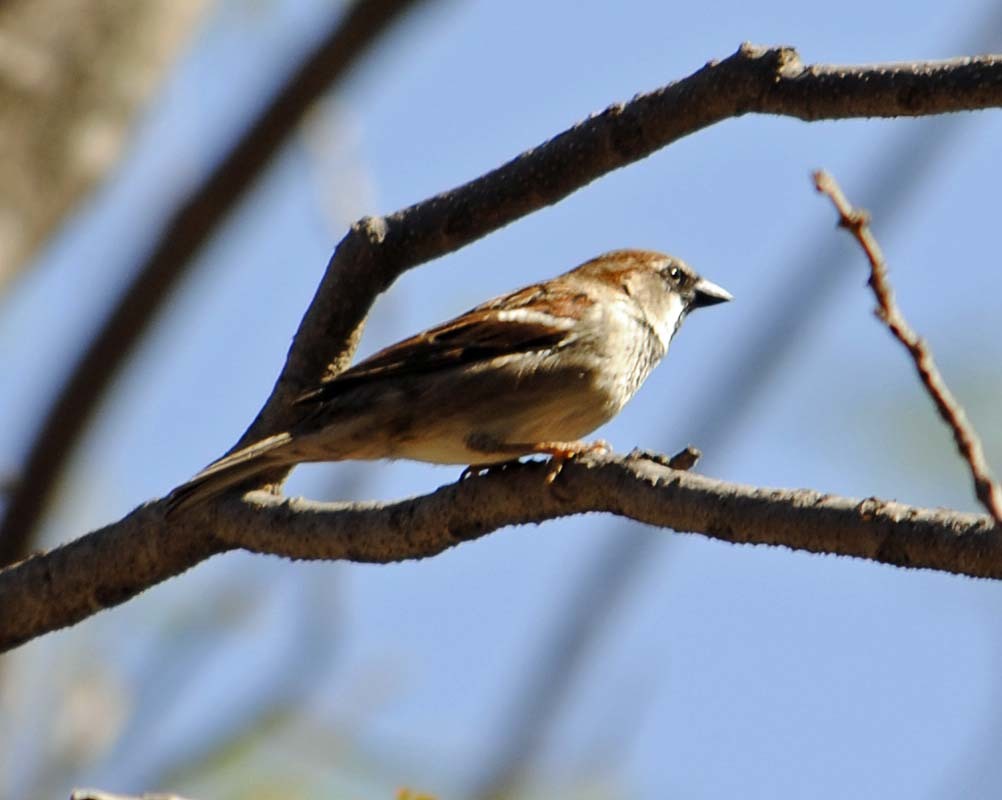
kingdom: Animalia
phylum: Chordata
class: Aves
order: Passeriformes
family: Passeridae
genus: Passer
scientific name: Passer domesticus
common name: House sparrow
